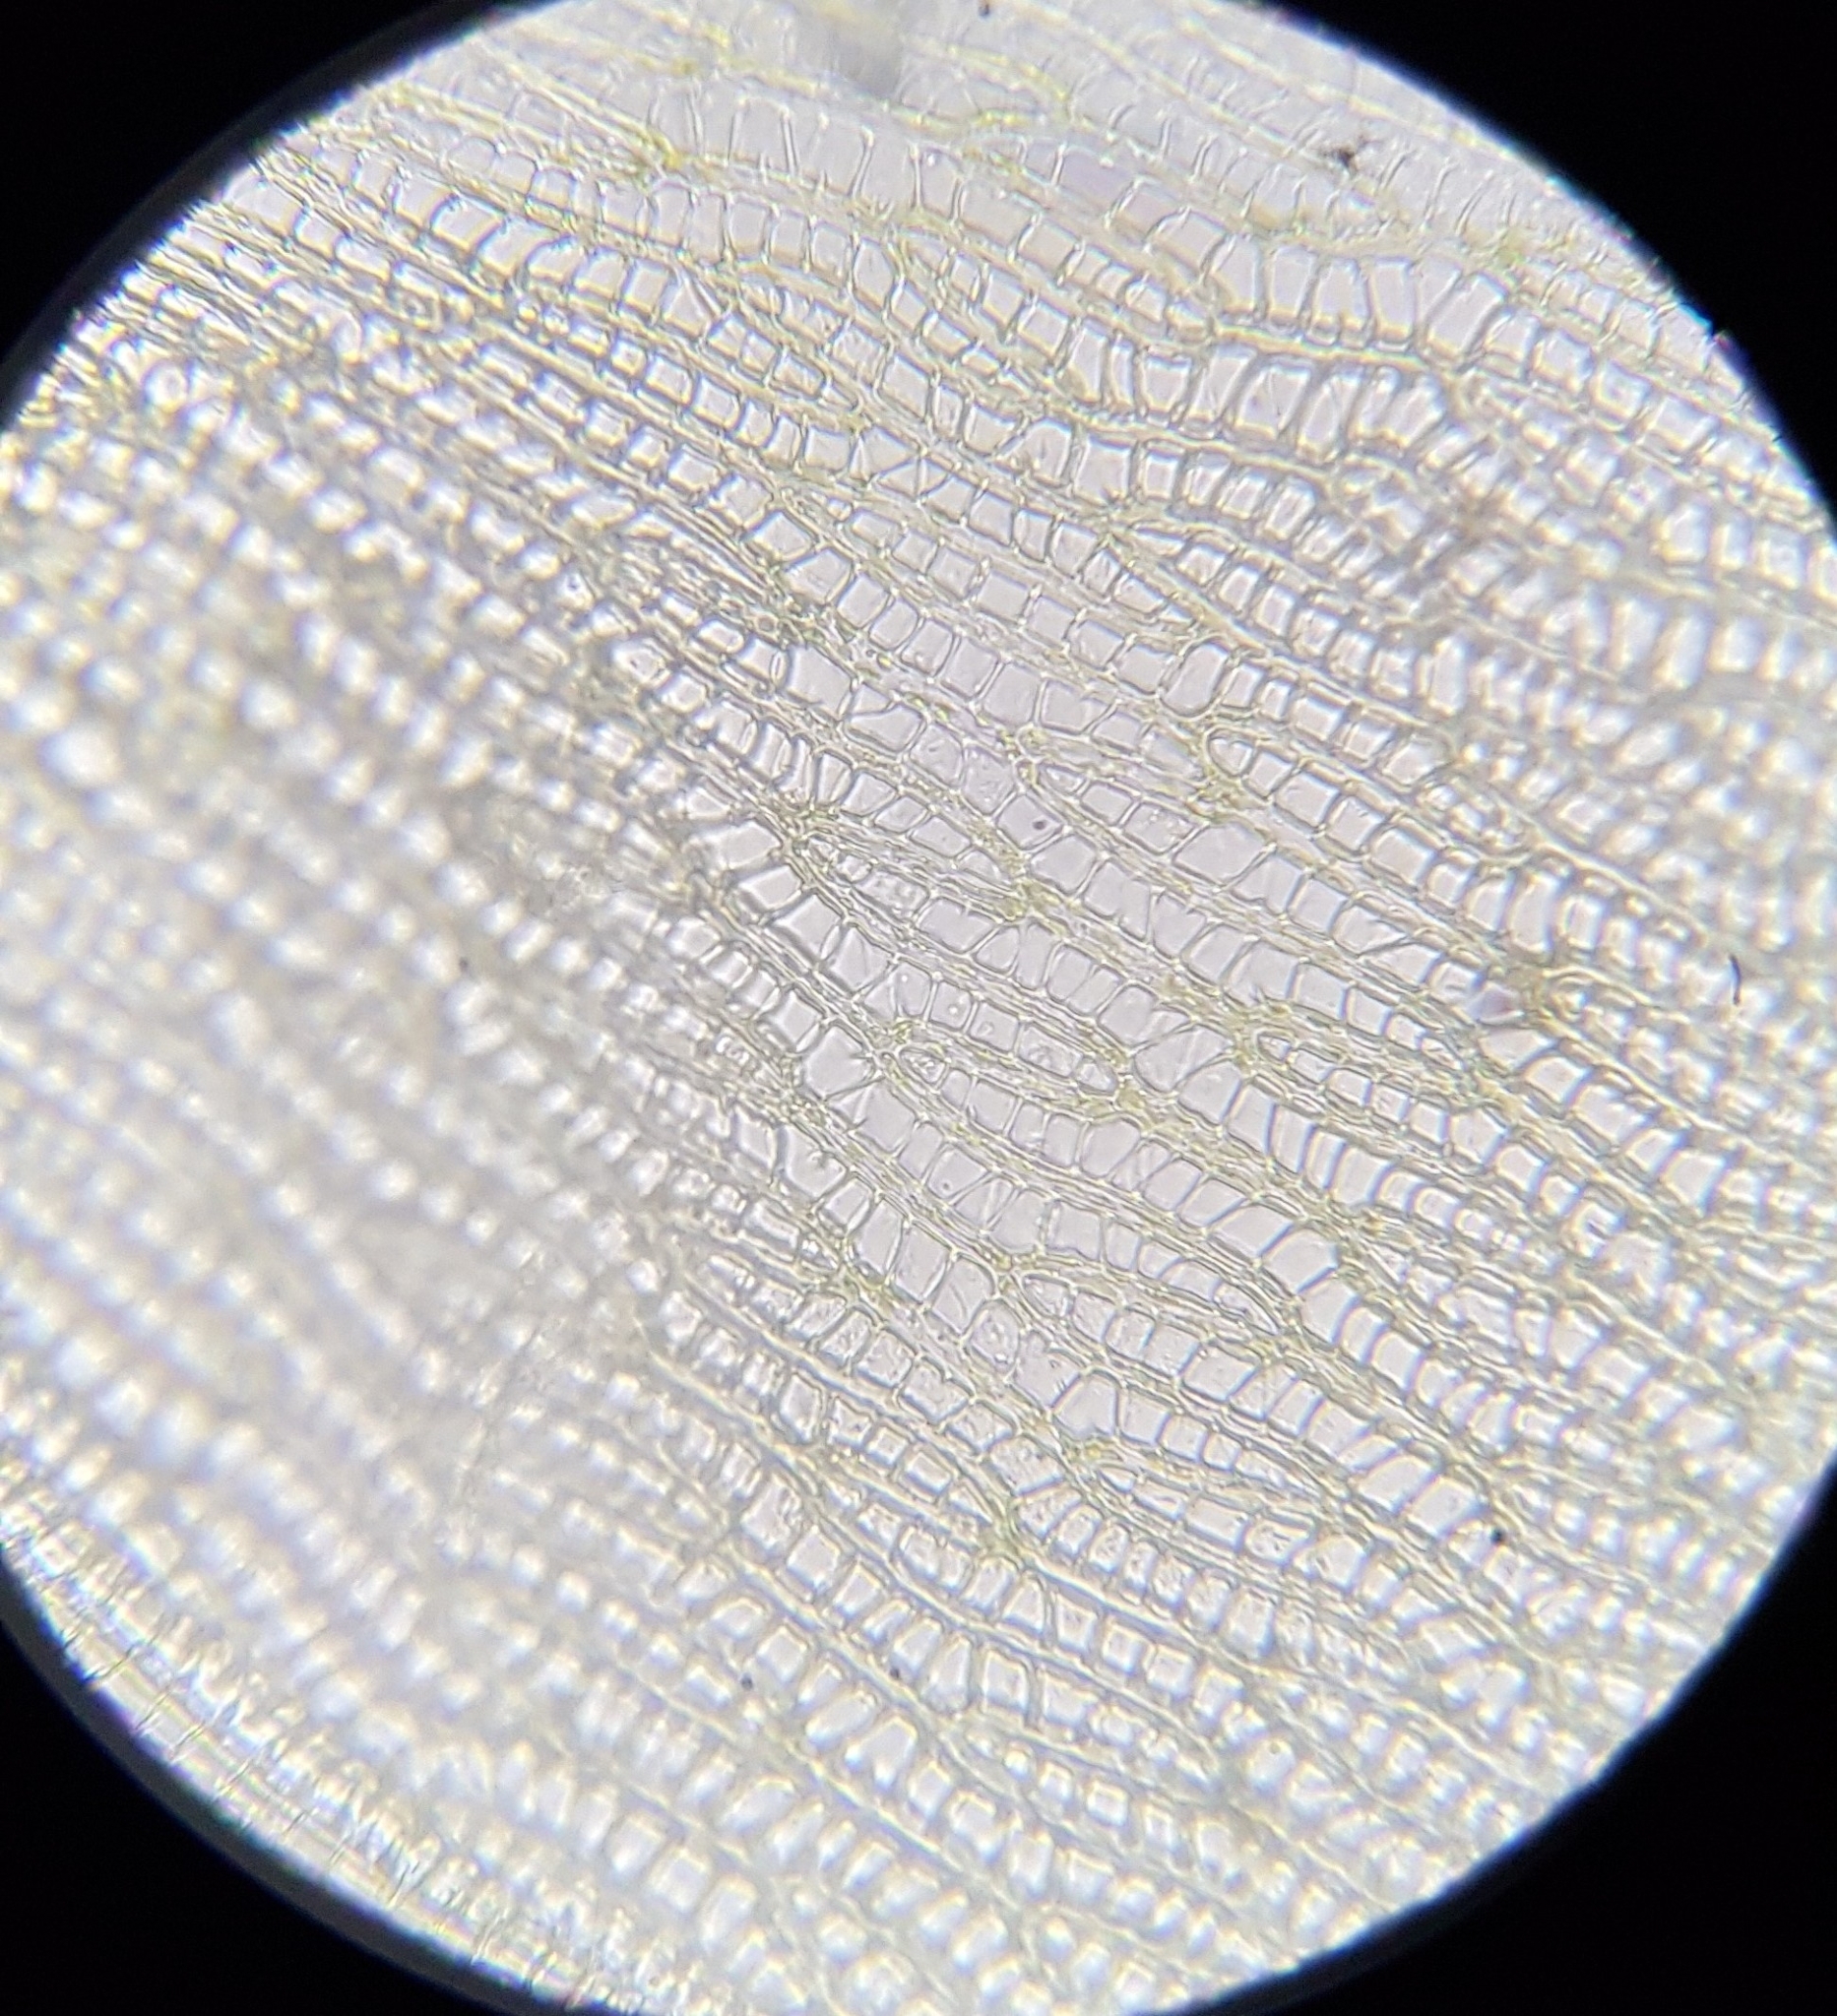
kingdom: Plantae
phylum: Bryophyta
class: Sphagnopsida
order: Sphagnales
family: Sphagnaceae
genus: Sphagnum
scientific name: Sphagnum fallax
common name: Flat-top peat moss
